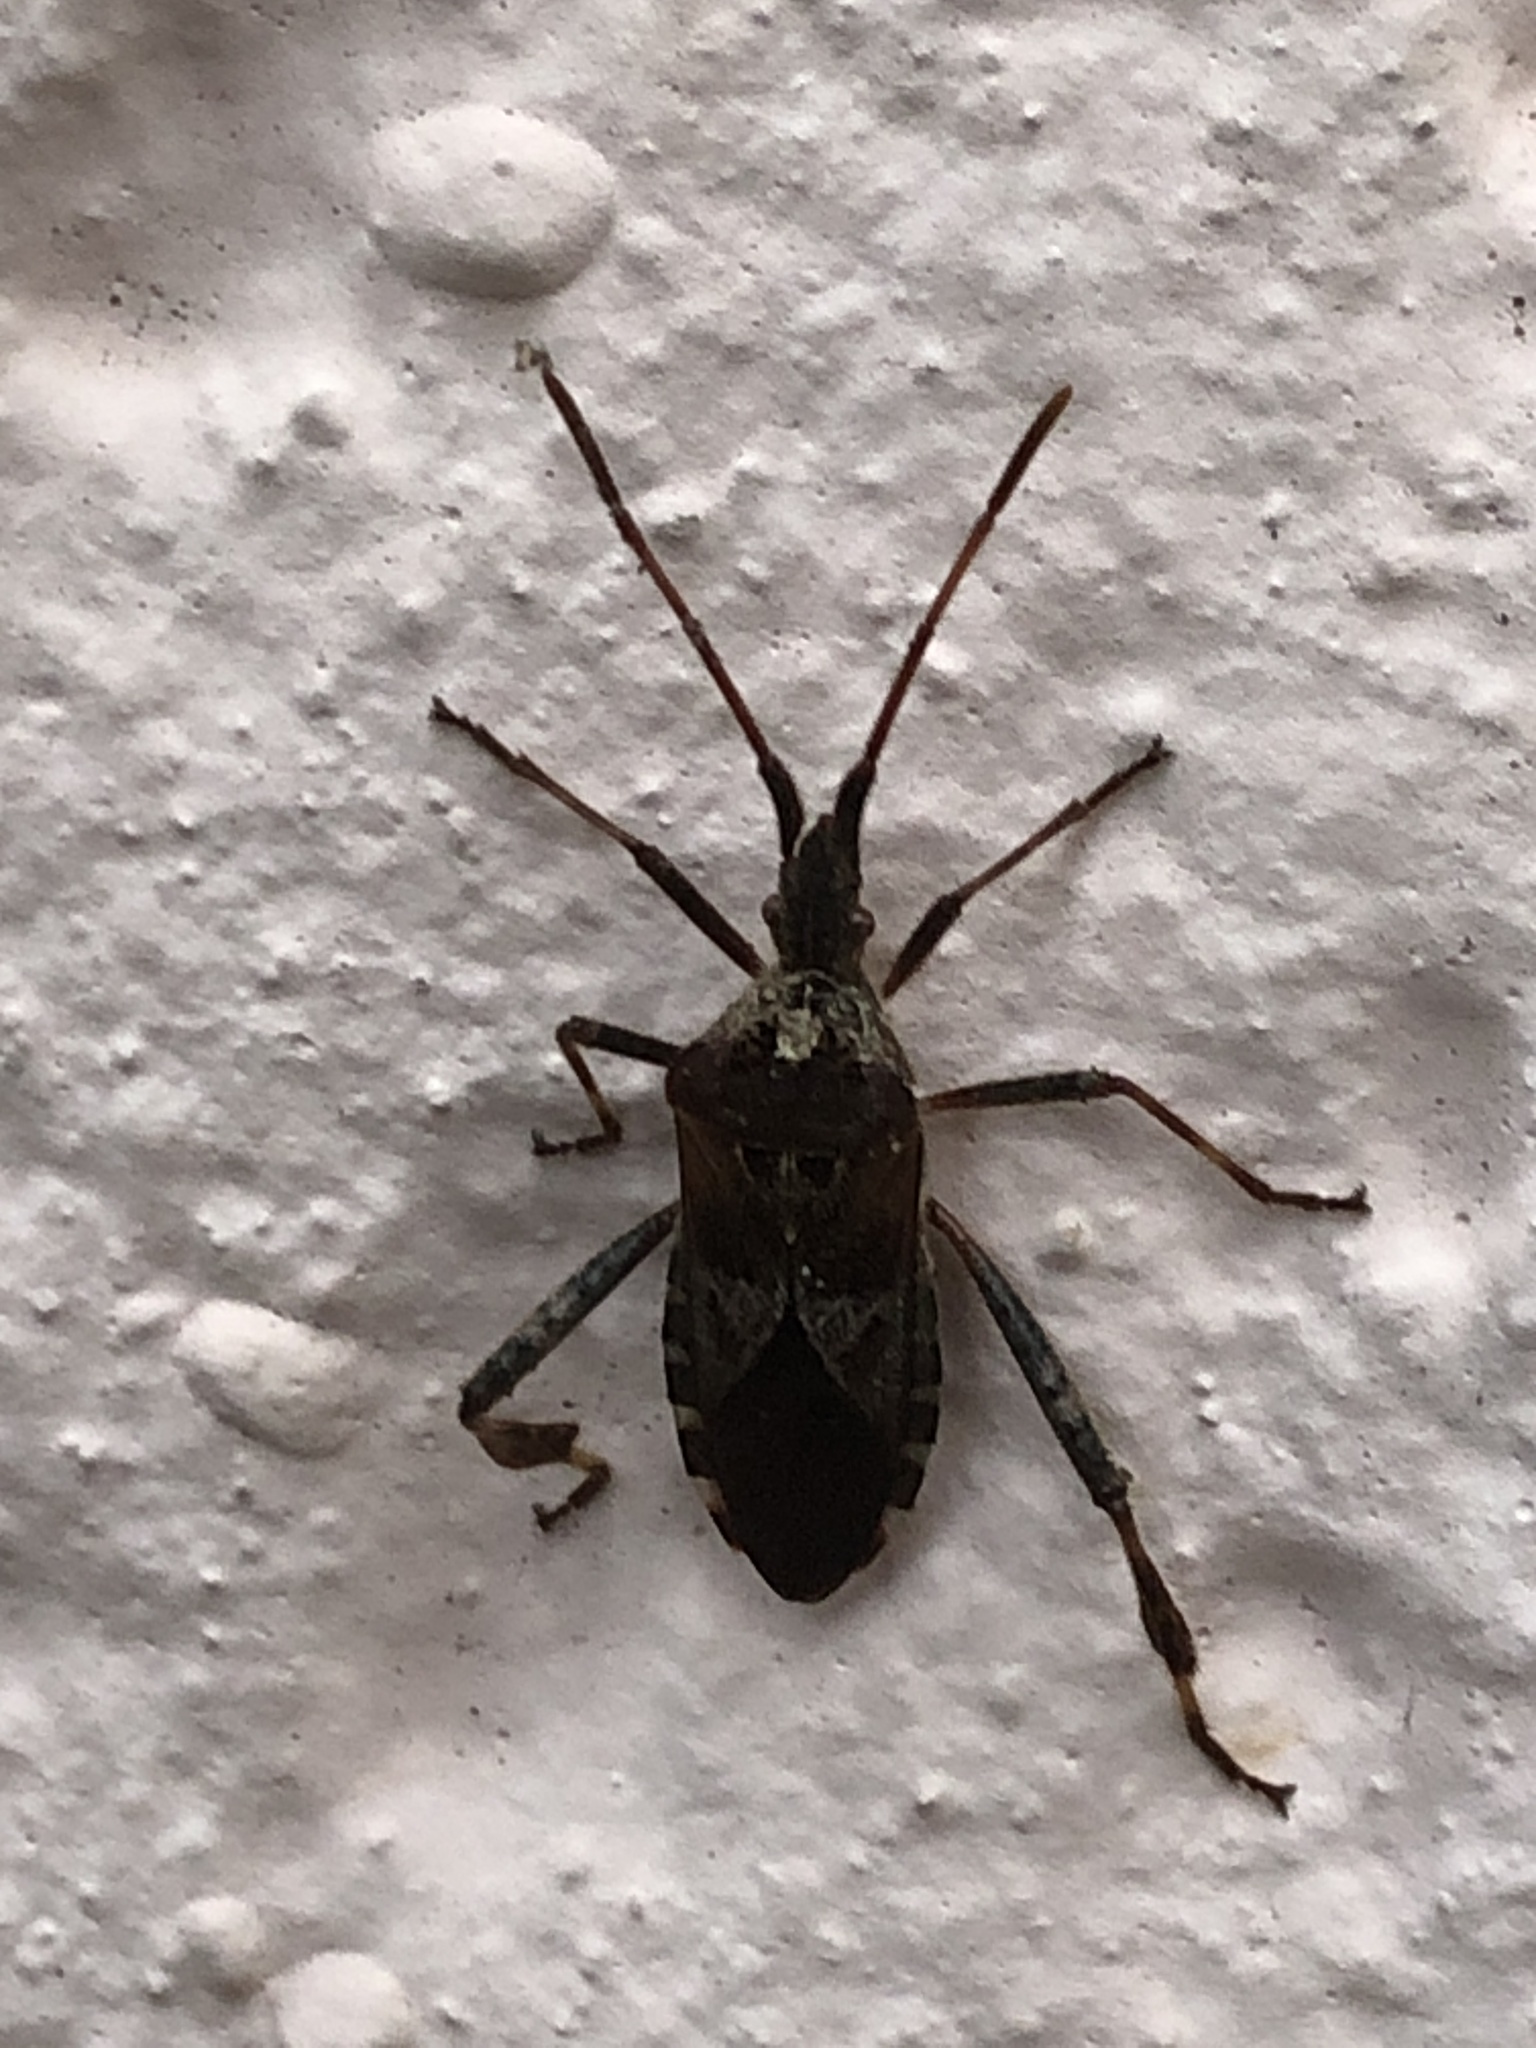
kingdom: Animalia
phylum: Arthropoda
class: Insecta
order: Hemiptera
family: Coreidae
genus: Leptoglossus
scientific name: Leptoglossus occidentalis
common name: Western conifer-seed bug
